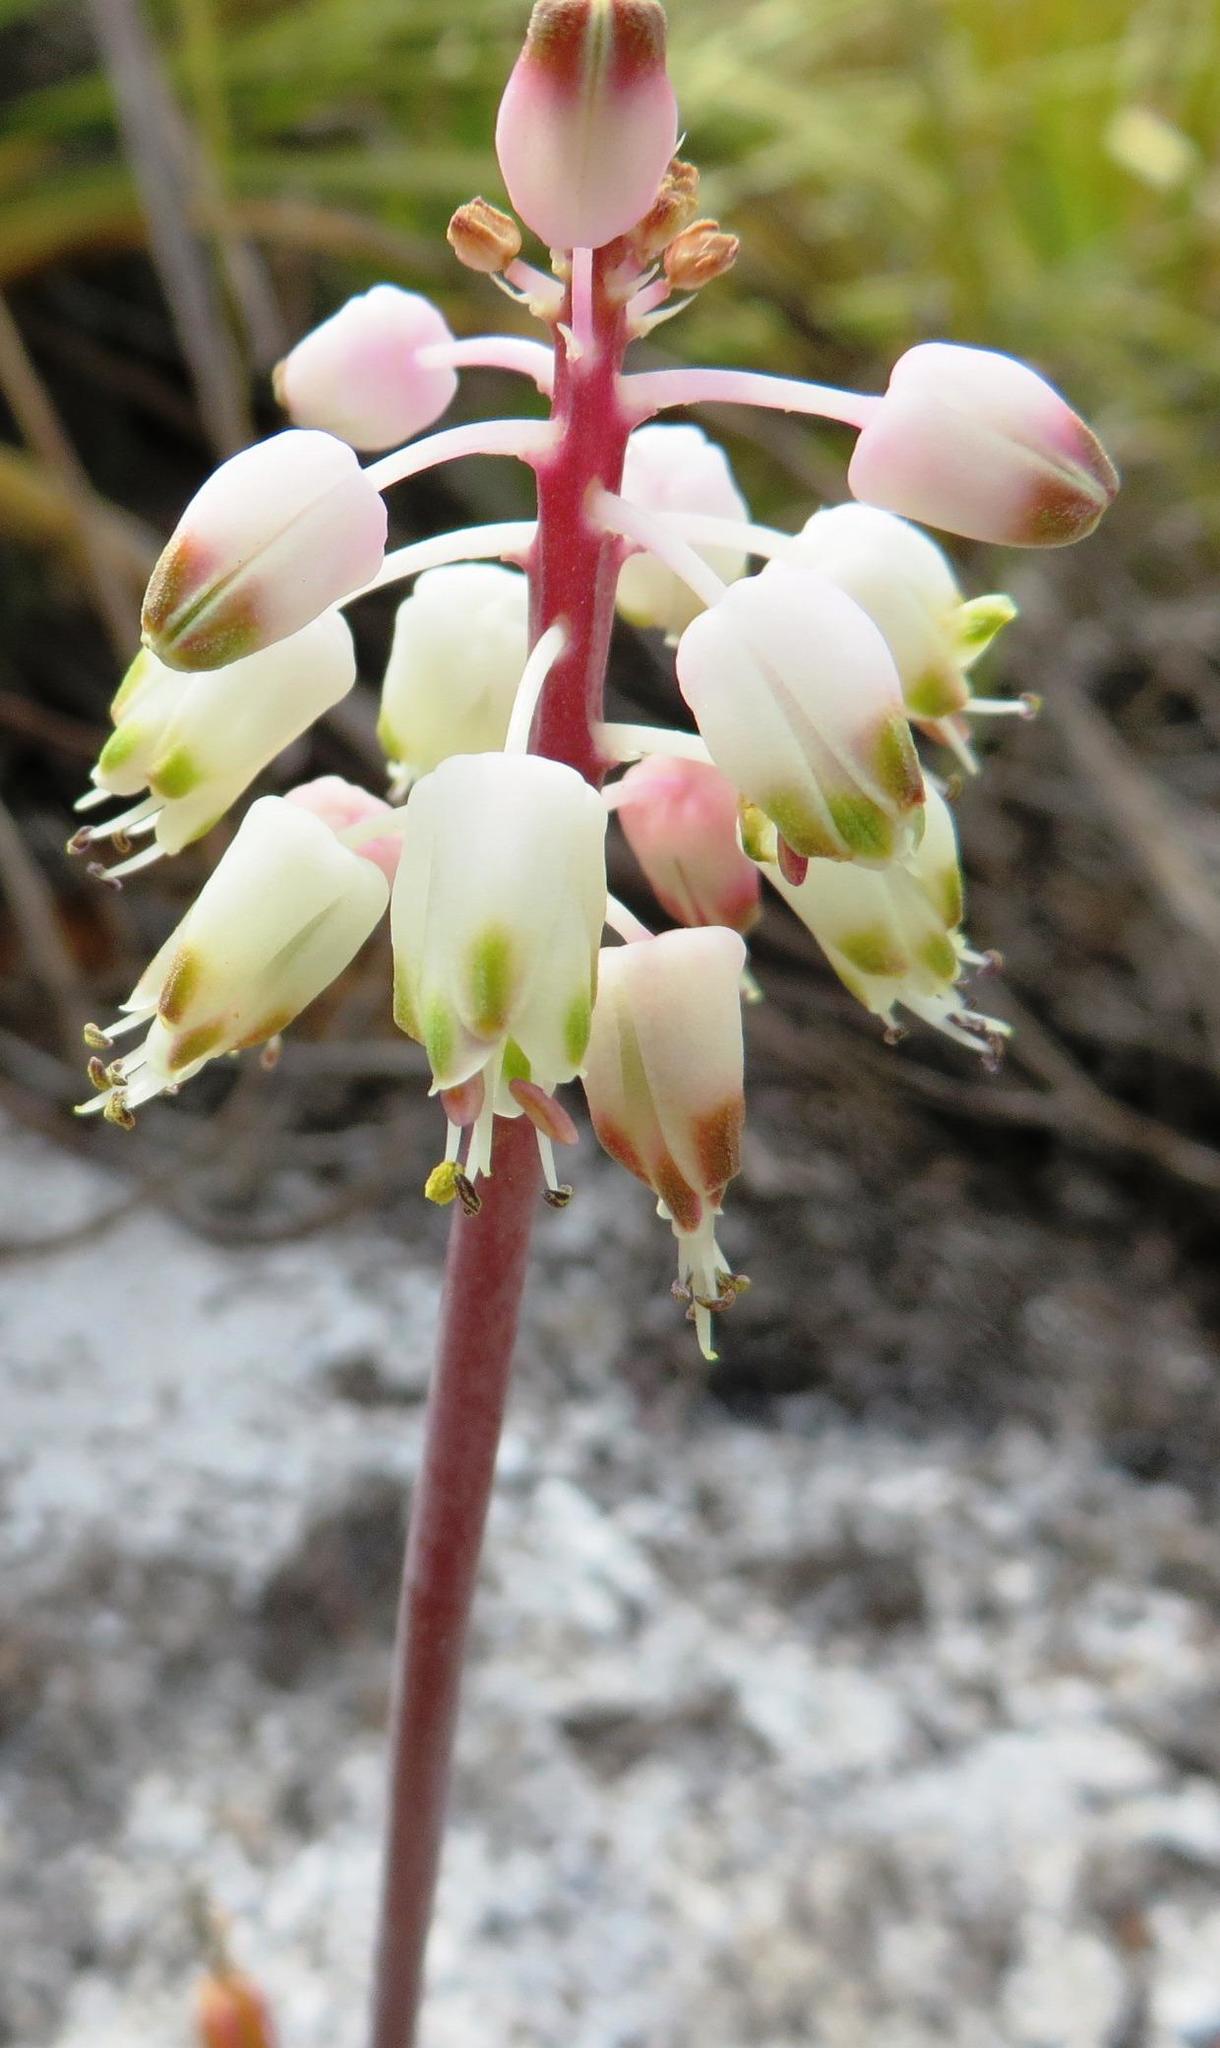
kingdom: Plantae
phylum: Tracheophyta
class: Liliopsida
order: Asparagales
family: Asparagaceae
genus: Lachenalia
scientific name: Lachenalia montana
